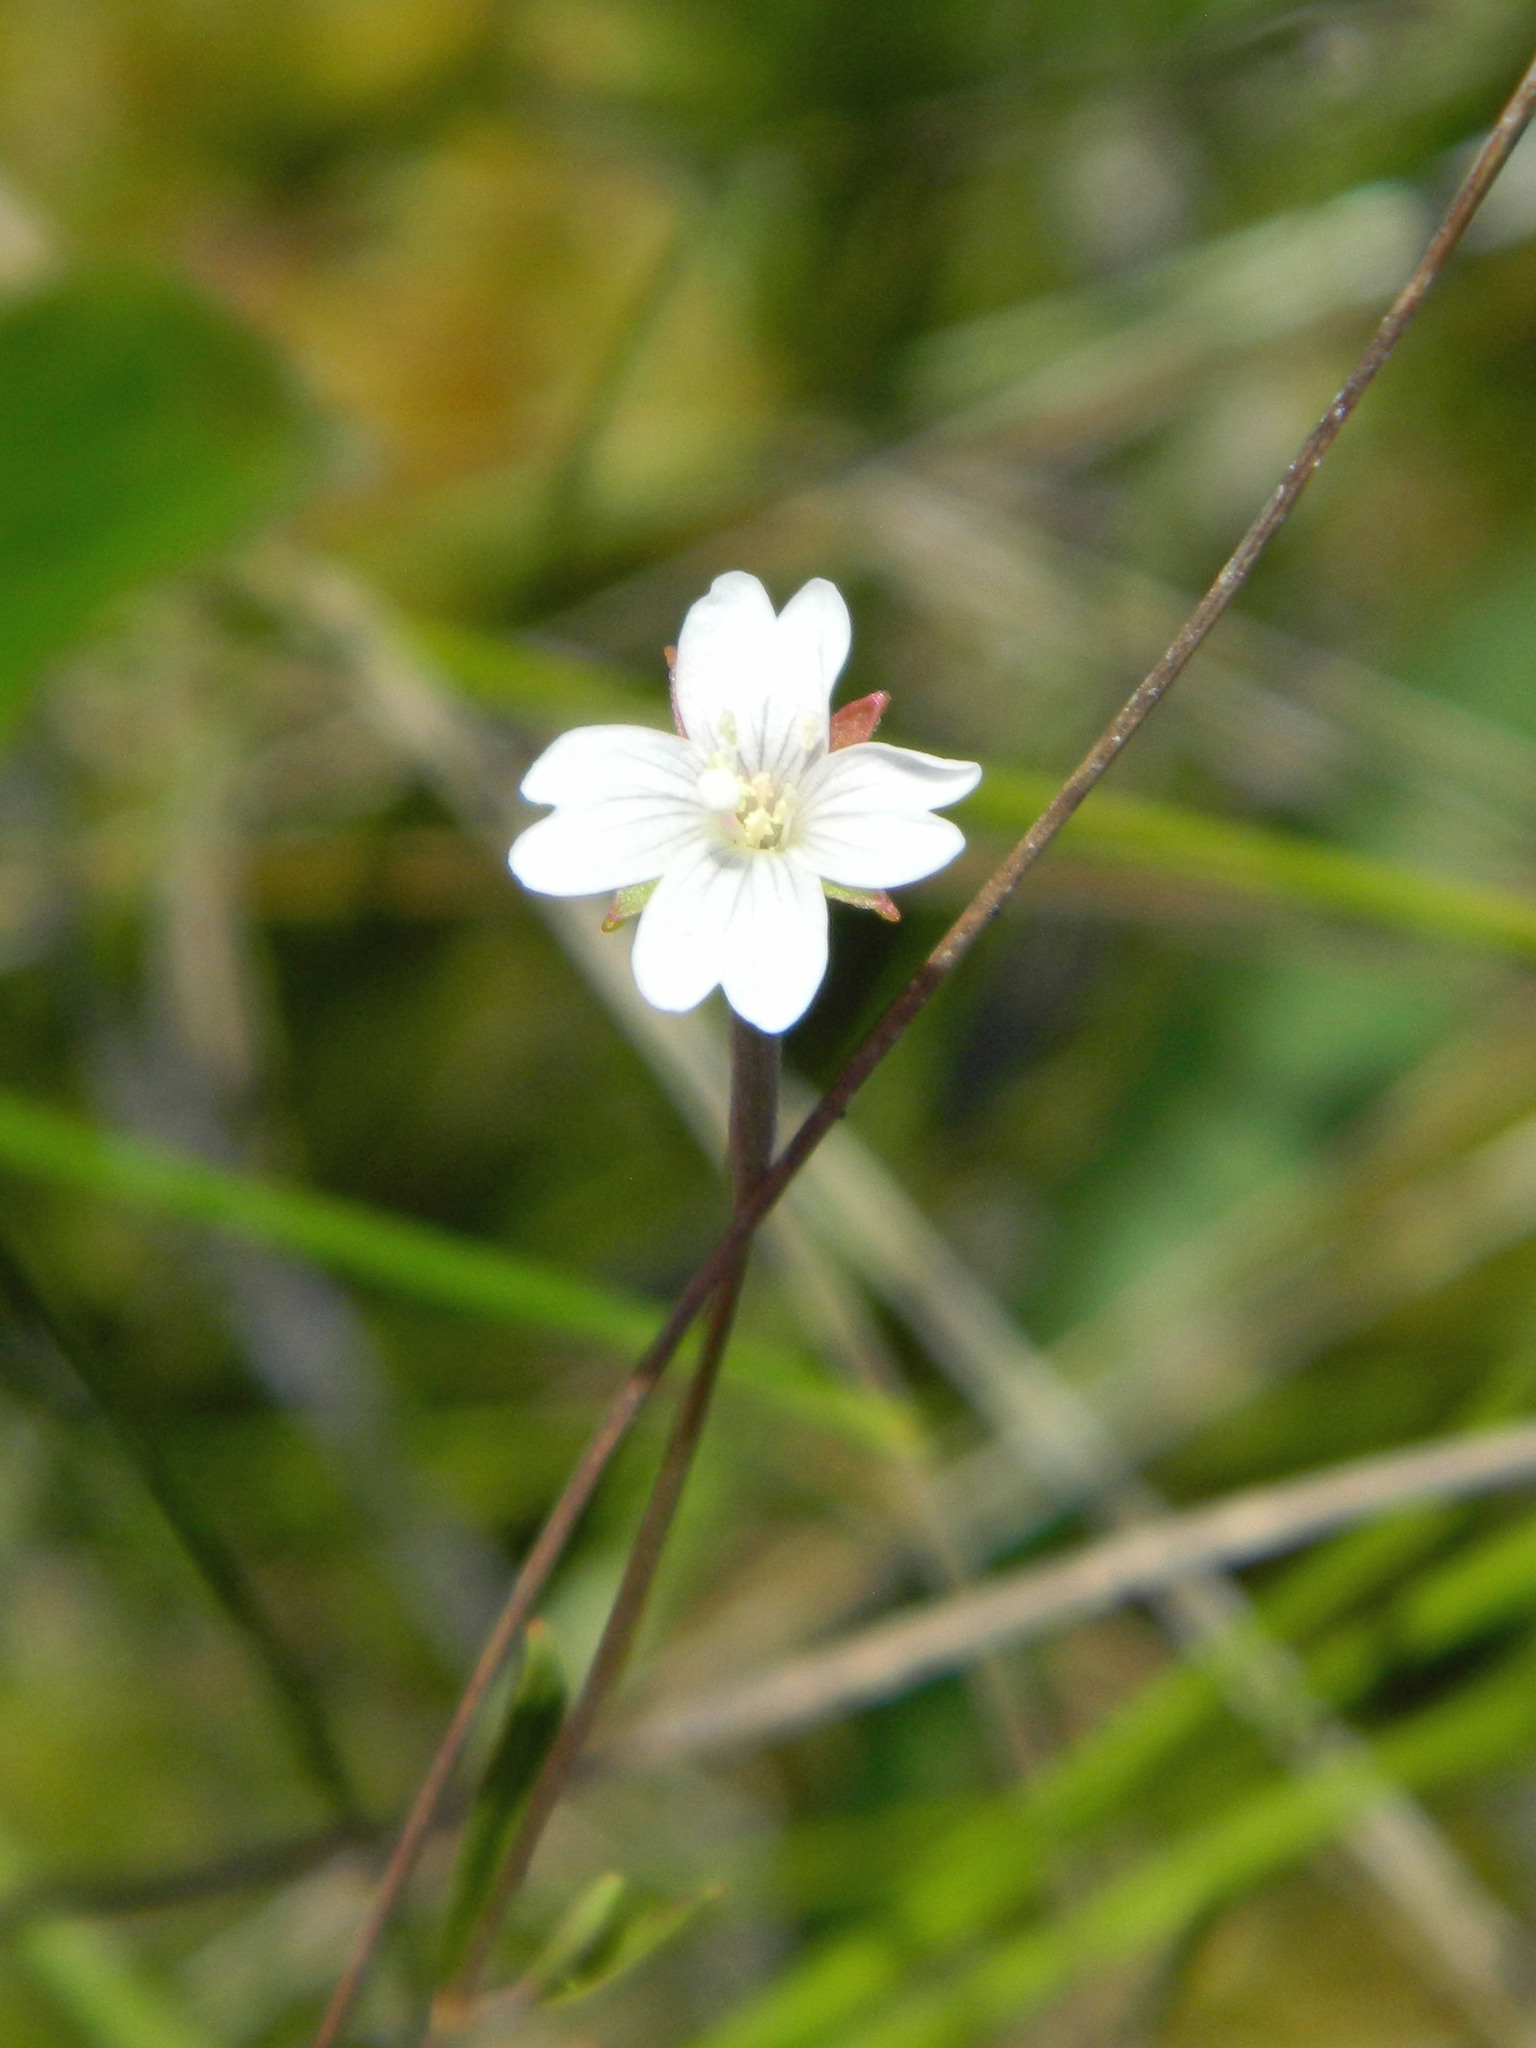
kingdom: Plantae
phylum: Tracheophyta
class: Magnoliopsida
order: Myrtales
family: Onagraceae
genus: Epilobium
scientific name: Epilobium palustre
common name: Marsh willowherb
